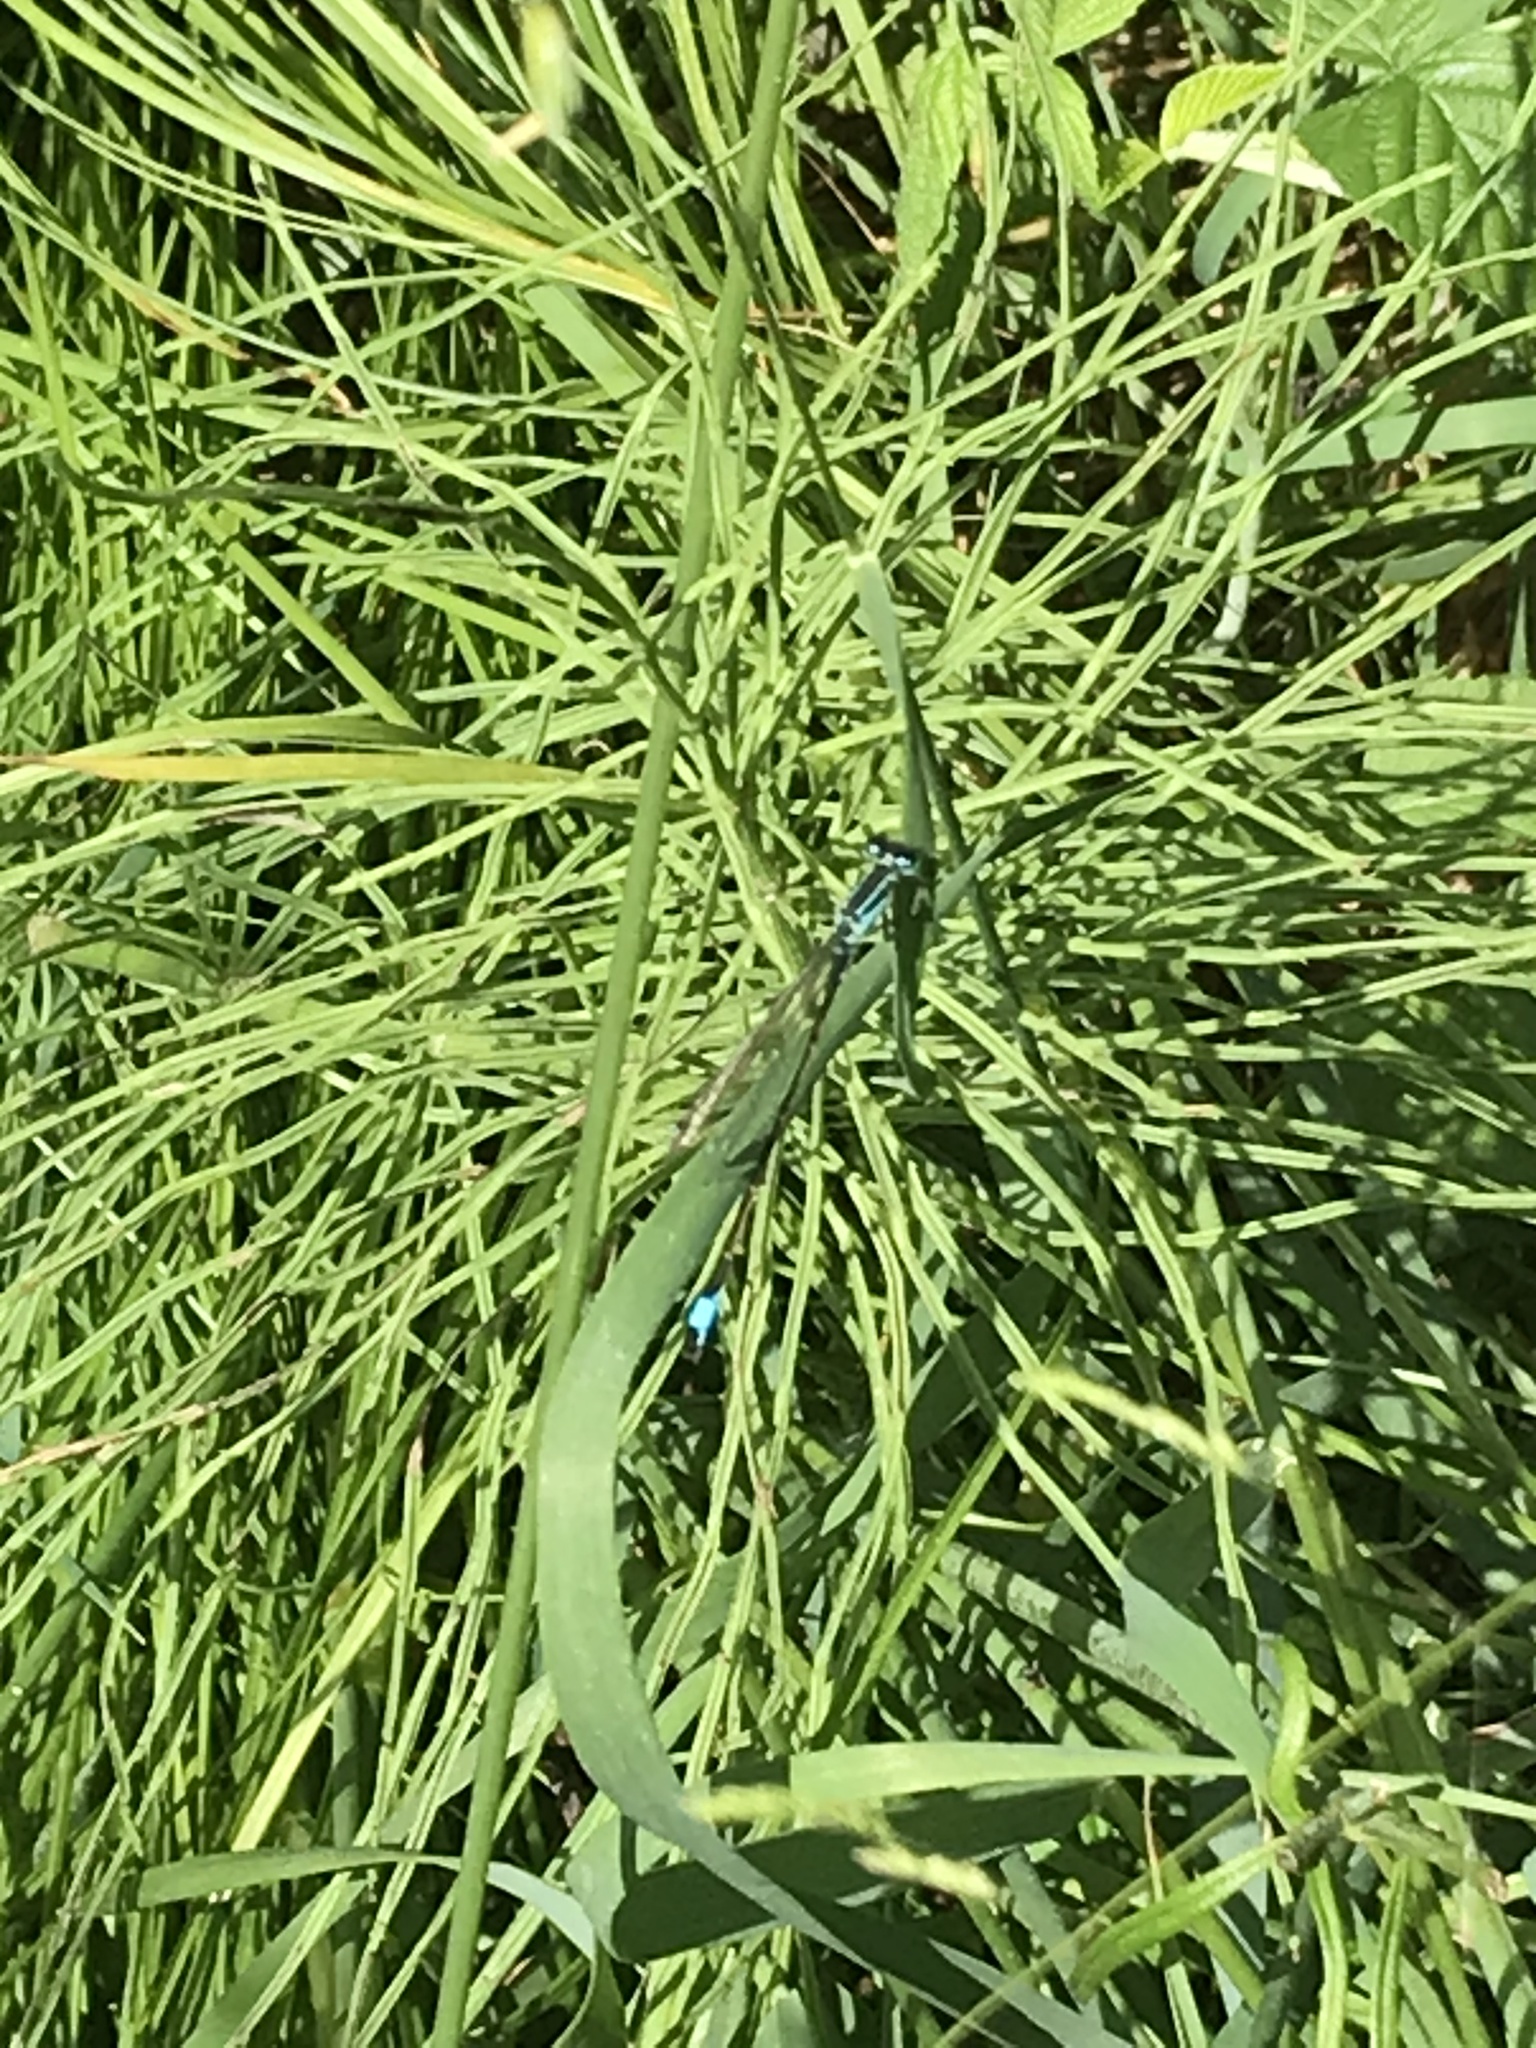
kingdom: Animalia
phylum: Arthropoda
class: Insecta
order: Odonata
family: Coenagrionidae
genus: Ischnura
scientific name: Ischnura elegans
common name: Blue-tailed damselfly
